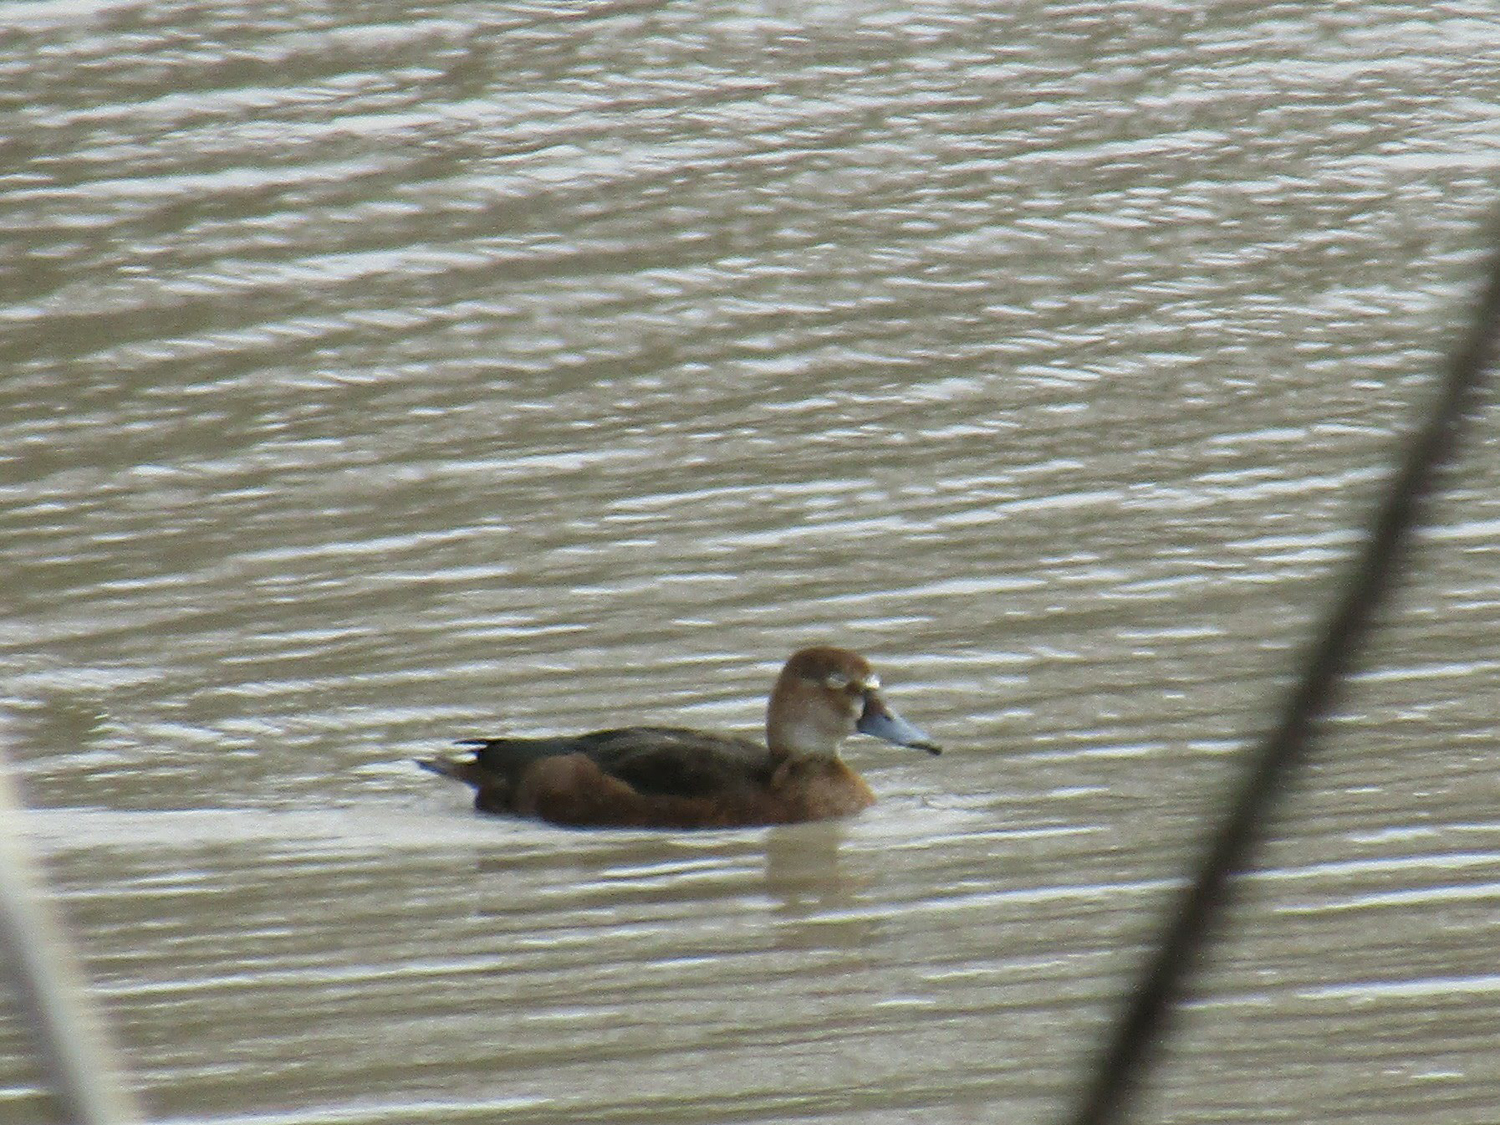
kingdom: Animalia
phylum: Chordata
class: Aves
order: Anseriformes
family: Anatidae
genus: Netta
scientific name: Netta peposaca
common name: Rosy-billed pochard
